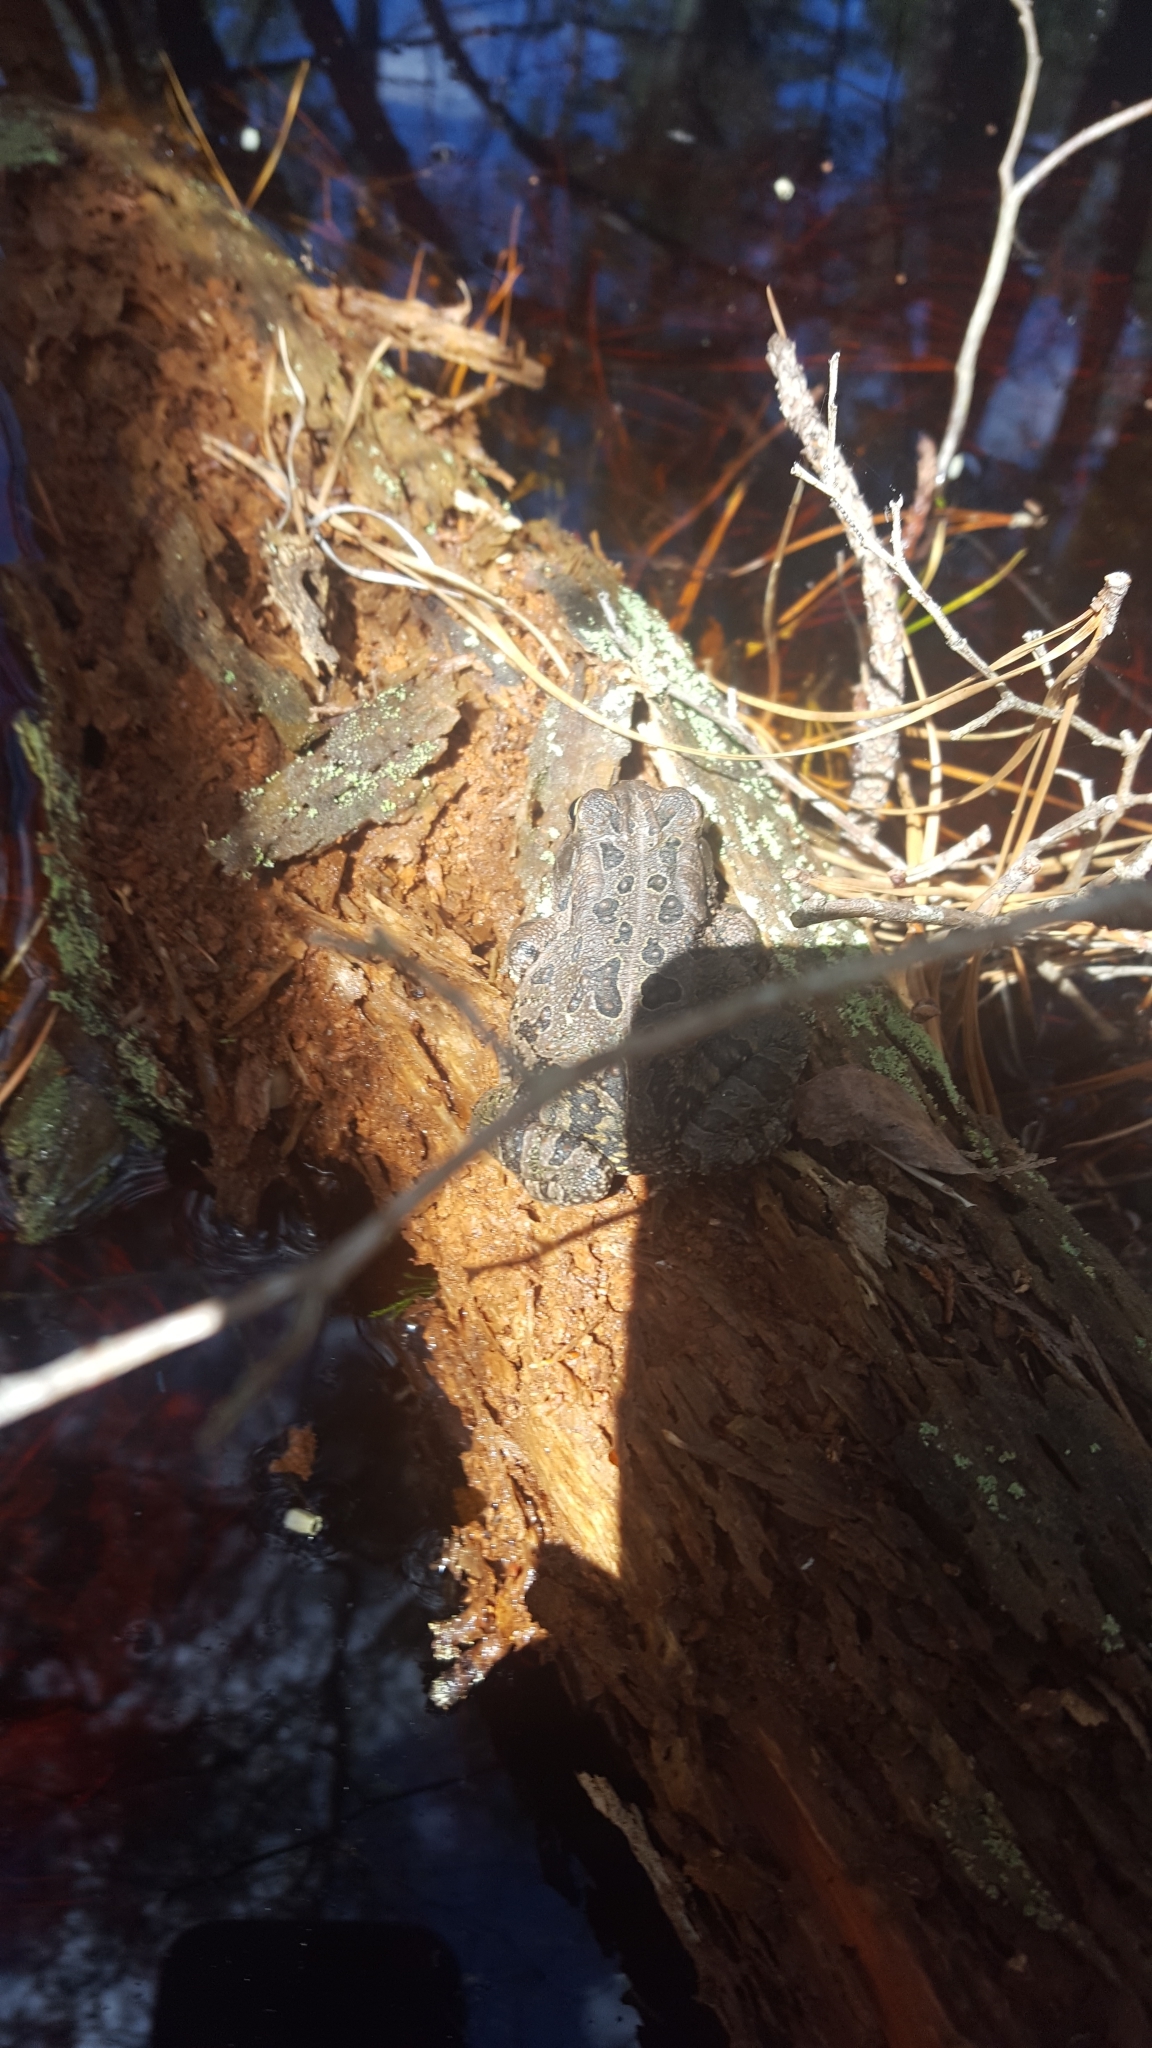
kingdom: Animalia
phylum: Chordata
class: Amphibia
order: Anura
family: Bufonidae
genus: Anaxyrus
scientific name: Anaxyrus fowleri
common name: Fowler's toad
